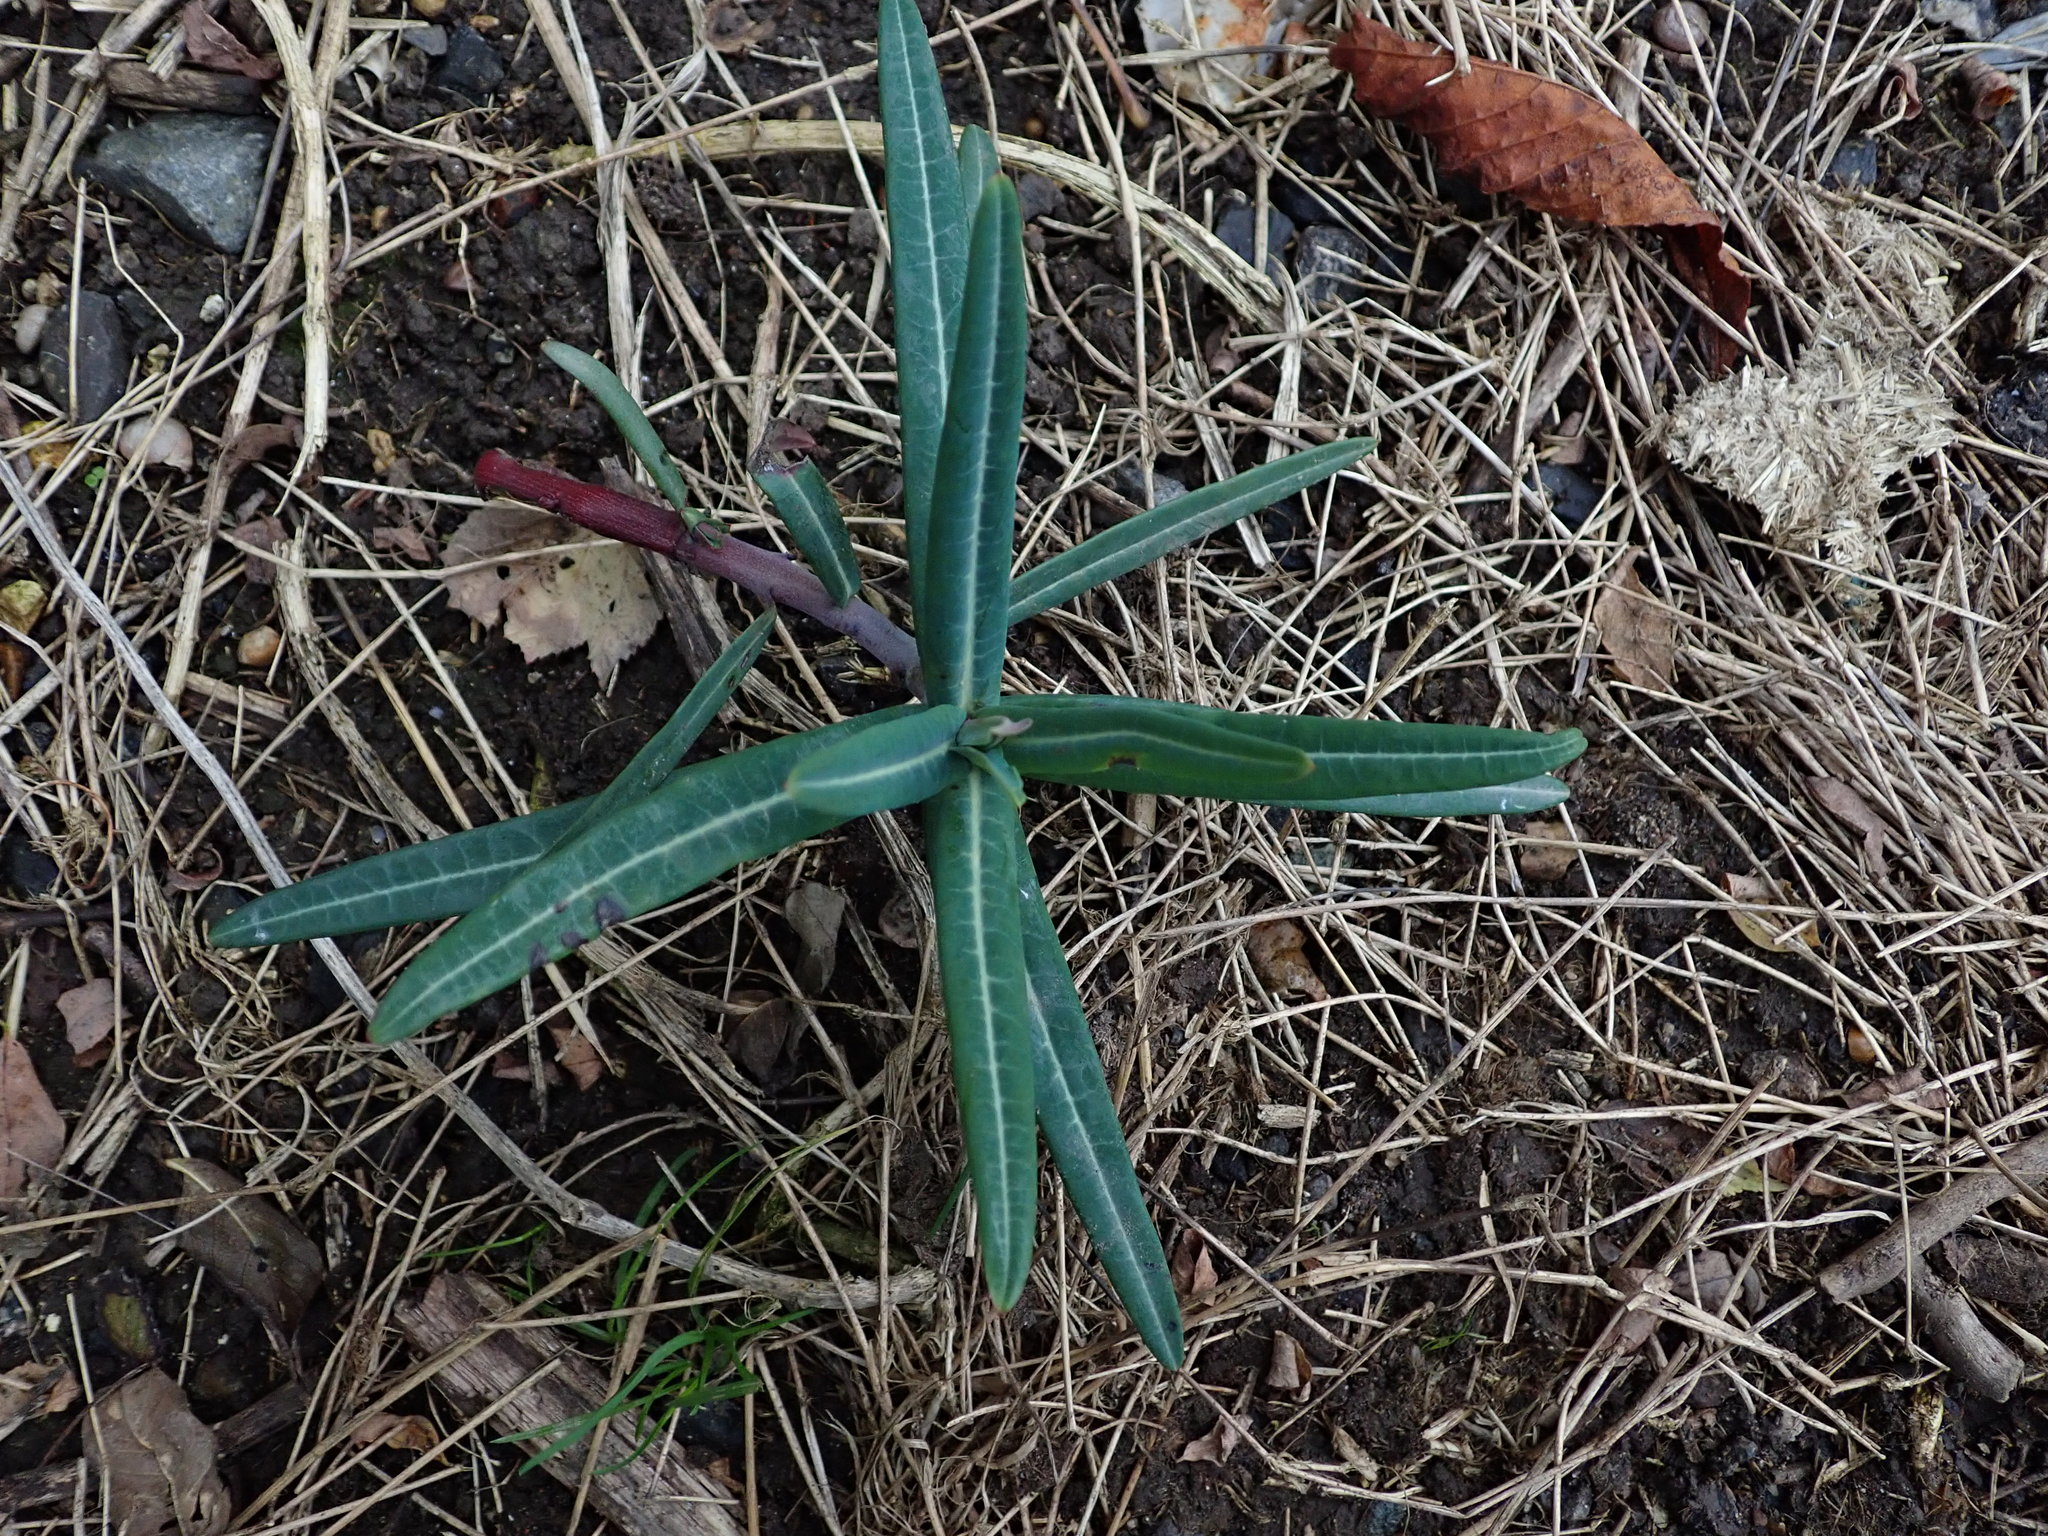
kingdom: Plantae
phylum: Tracheophyta
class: Magnoliopsida
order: Malpighiales
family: Euphorbiaceae
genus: Euphorbia
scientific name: Euphorbia lathyris
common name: Caper spurge
